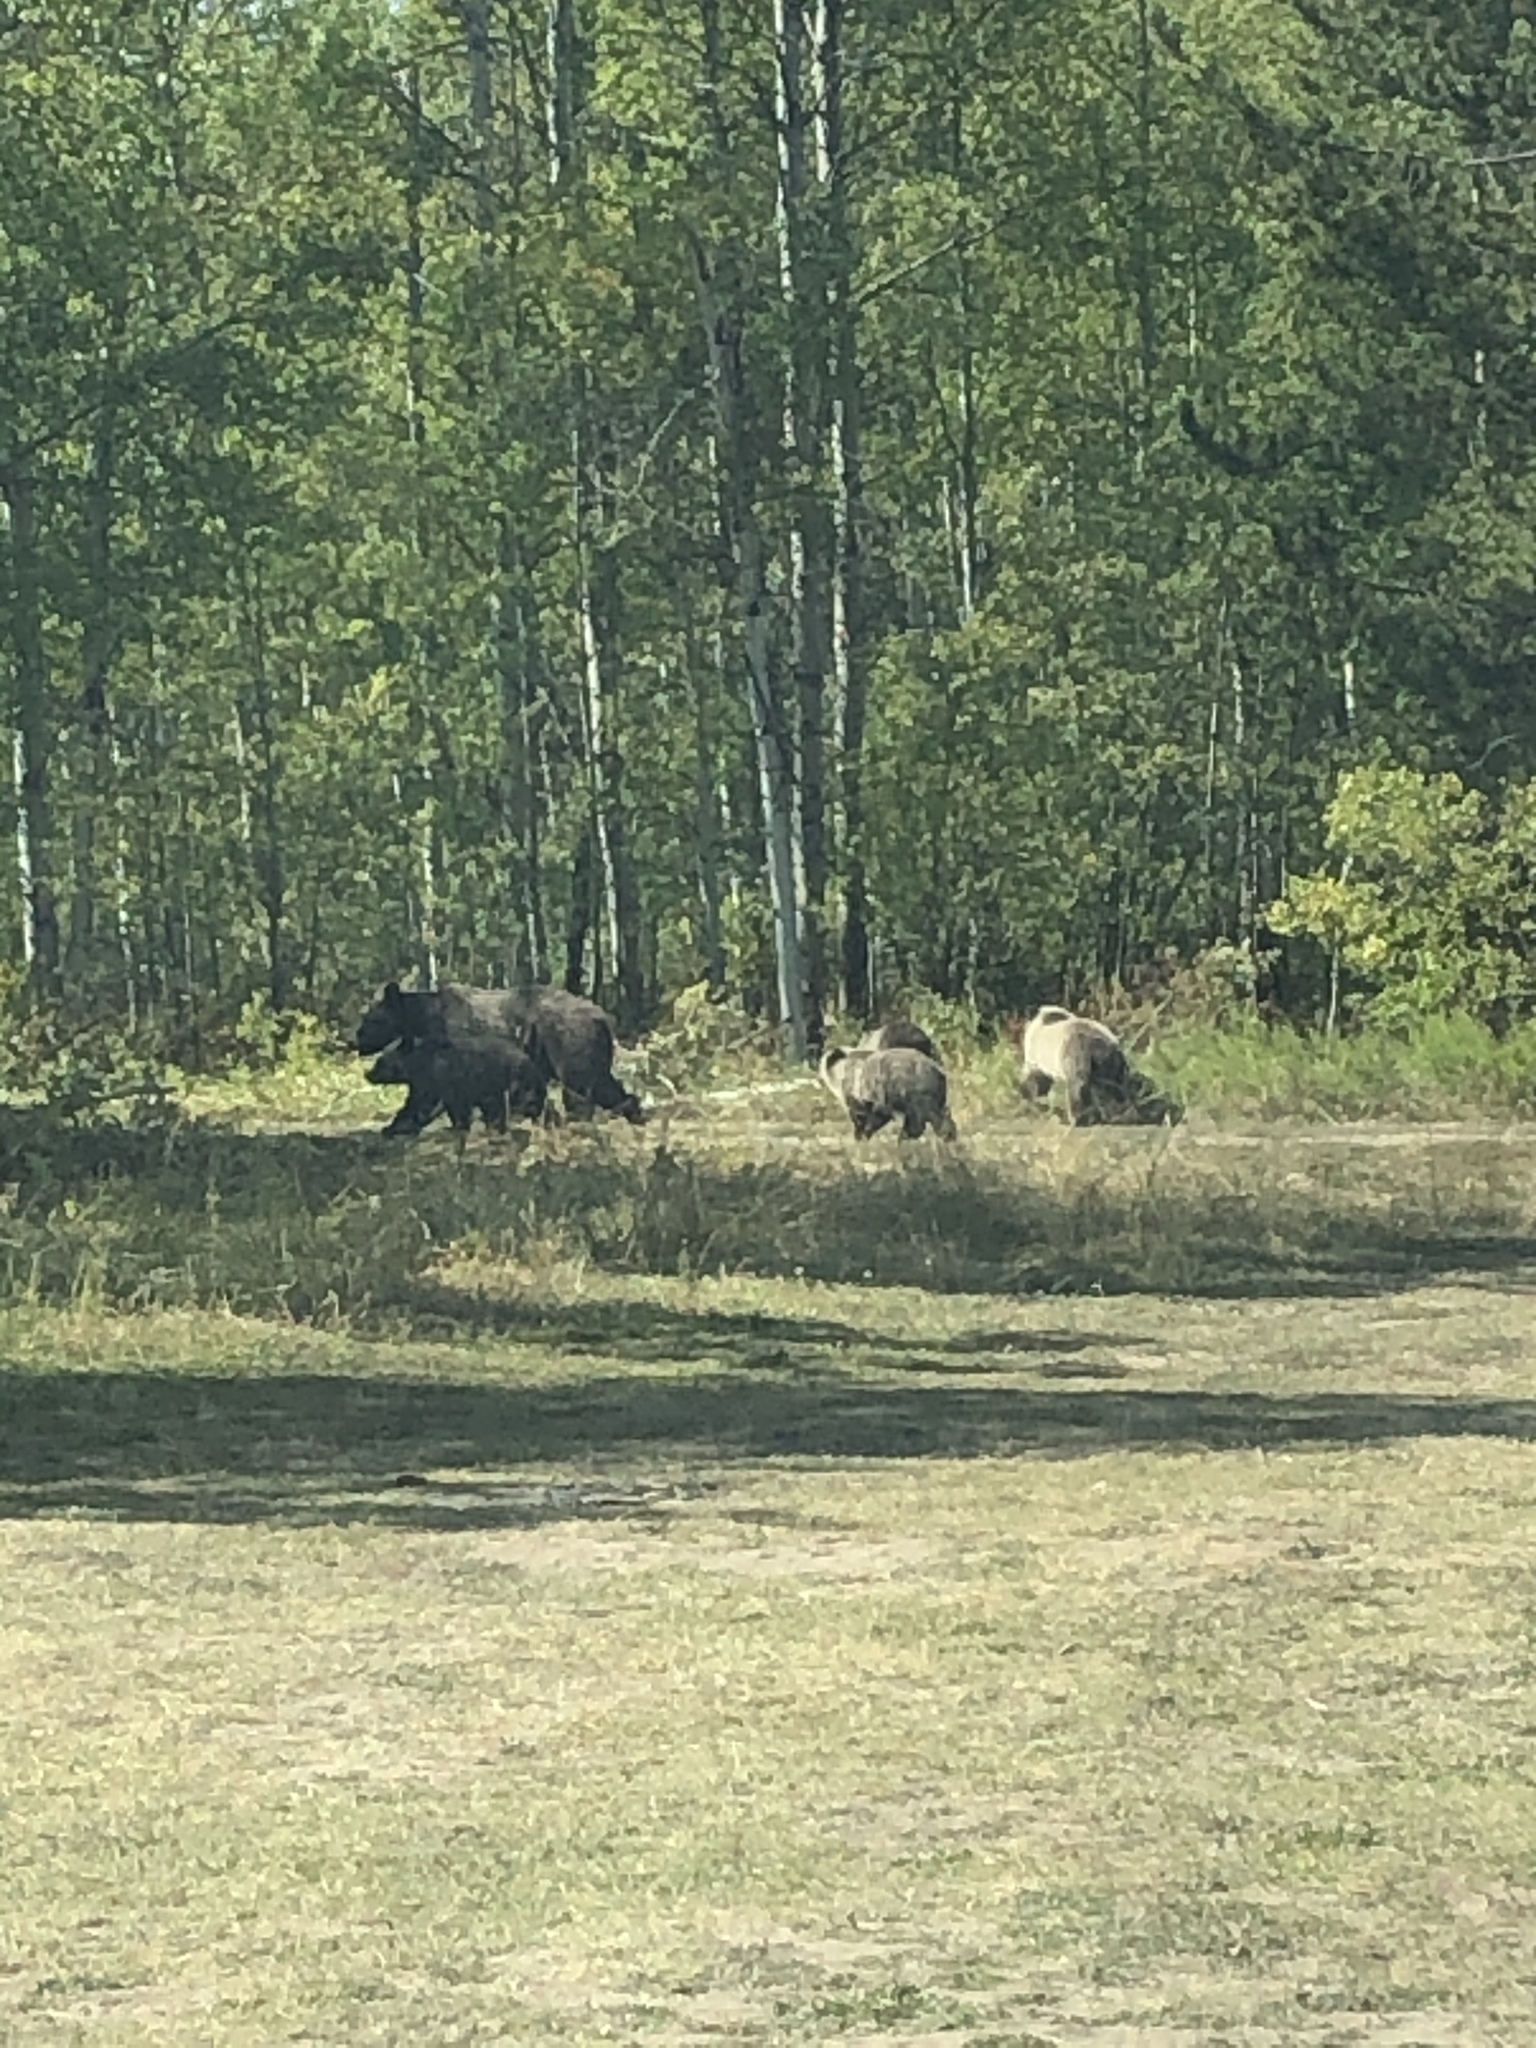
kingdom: Animalia
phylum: Chordata
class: Mammalia
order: Carnivora
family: Ursidae
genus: Ursus
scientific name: Ursus arctos
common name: Brown bear
